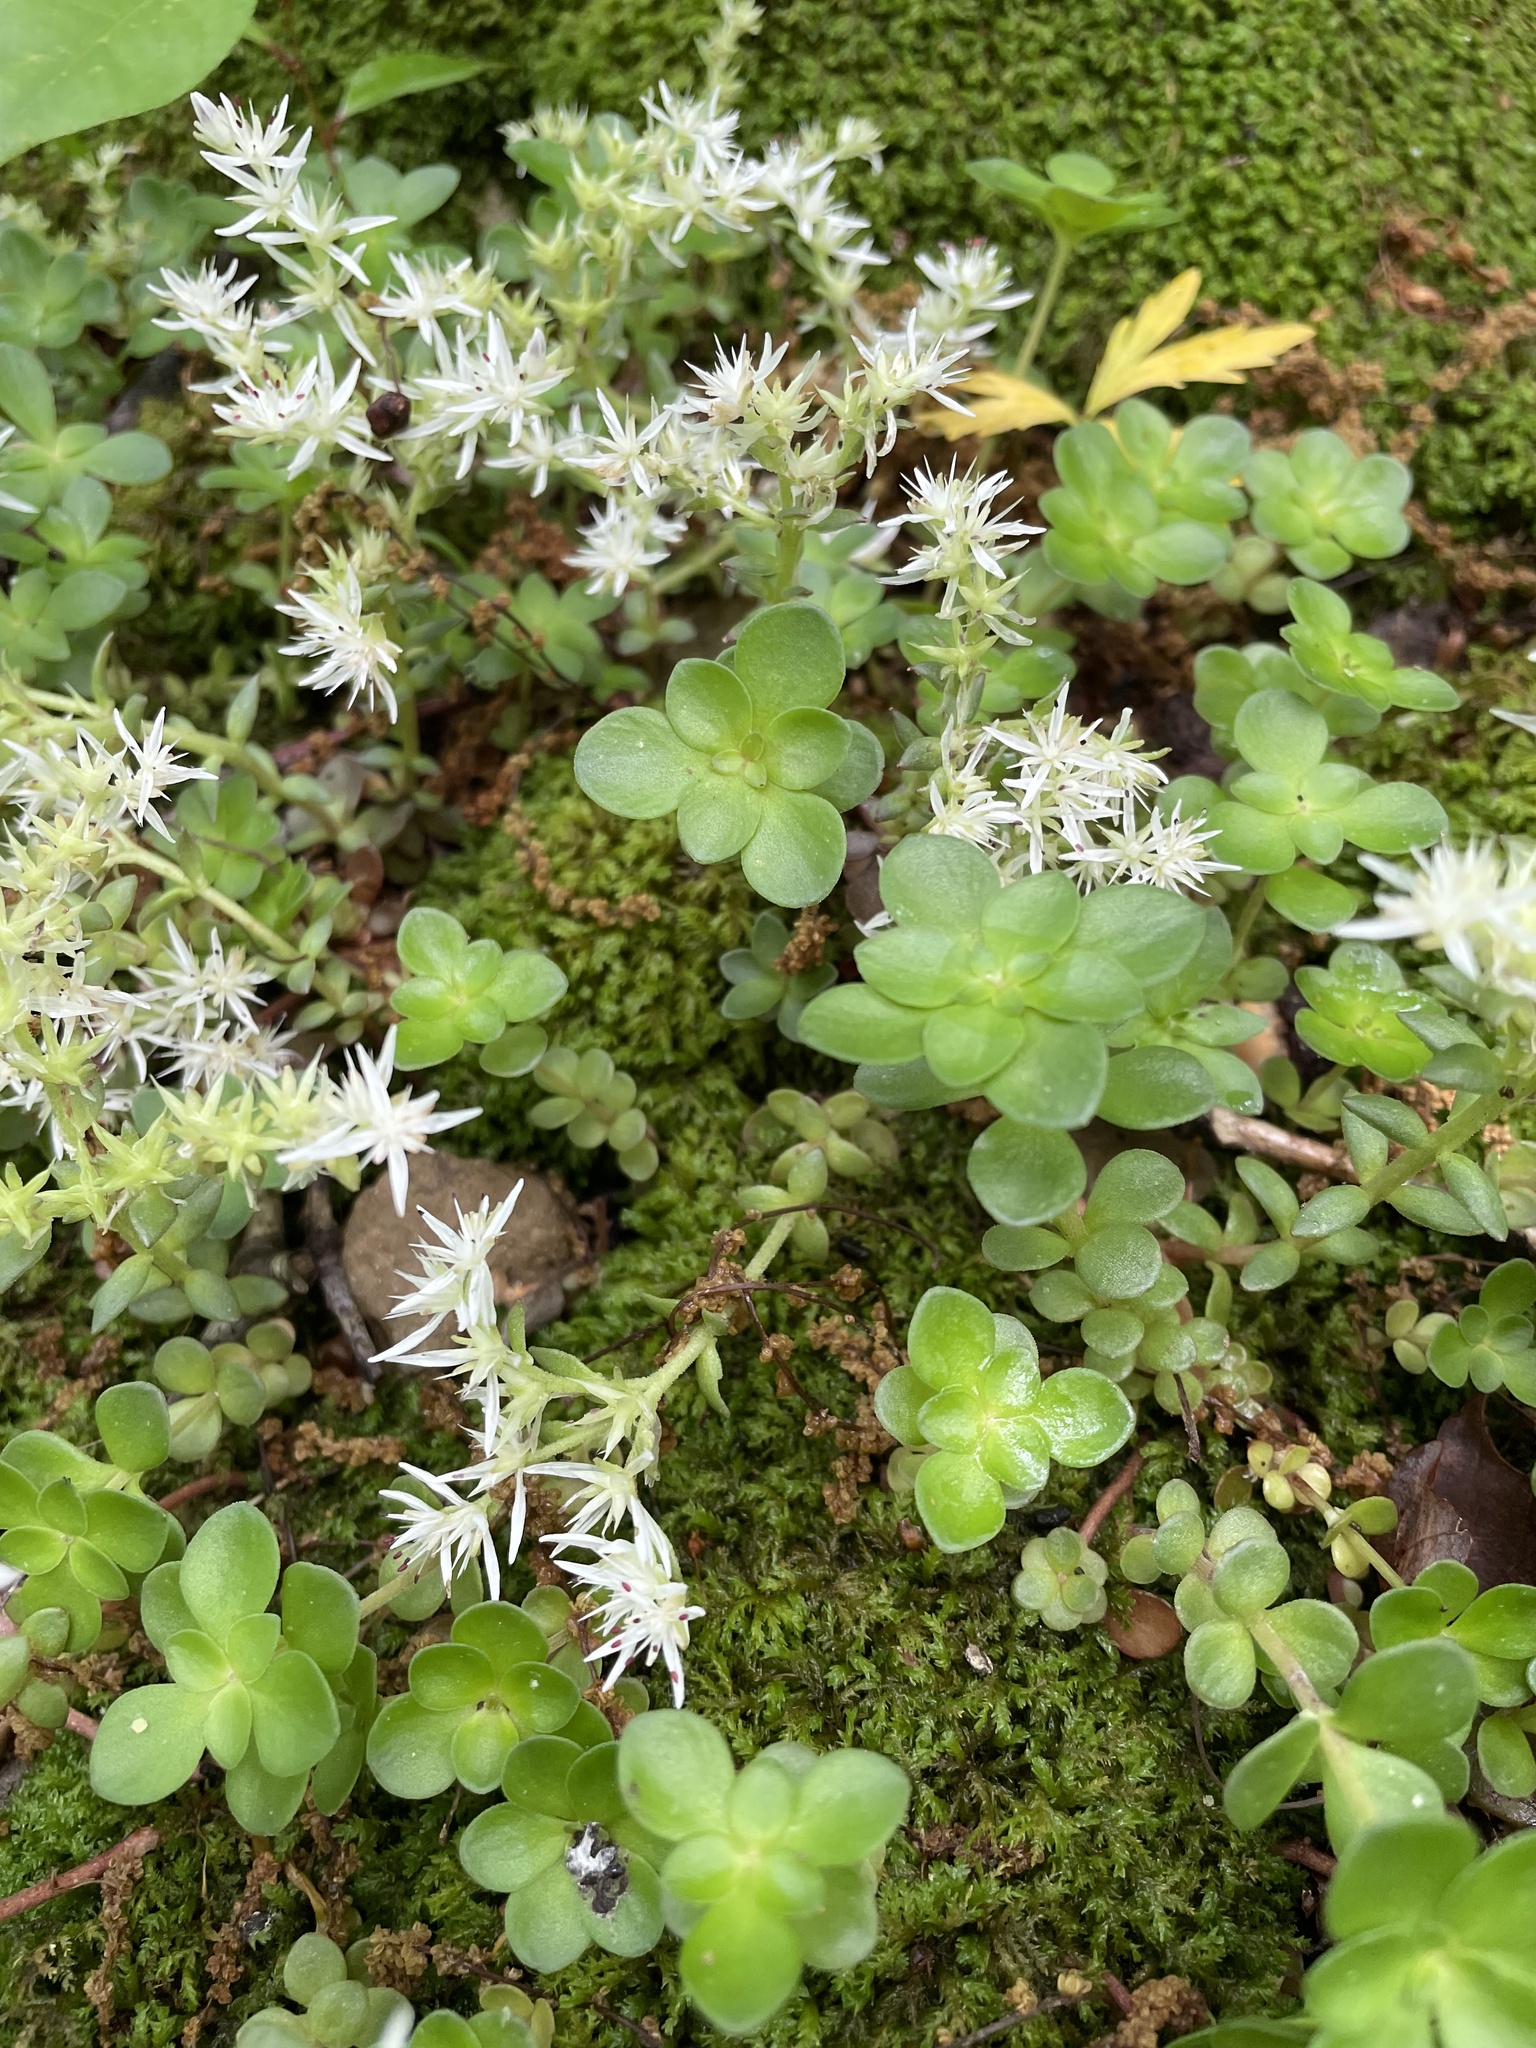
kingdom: Plantae
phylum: Tracheophyta
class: Magnoliopsida
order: Saxifragales
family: Crassulaceae
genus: Sedum
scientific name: Sedum ternatum
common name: Wild stonecrop
